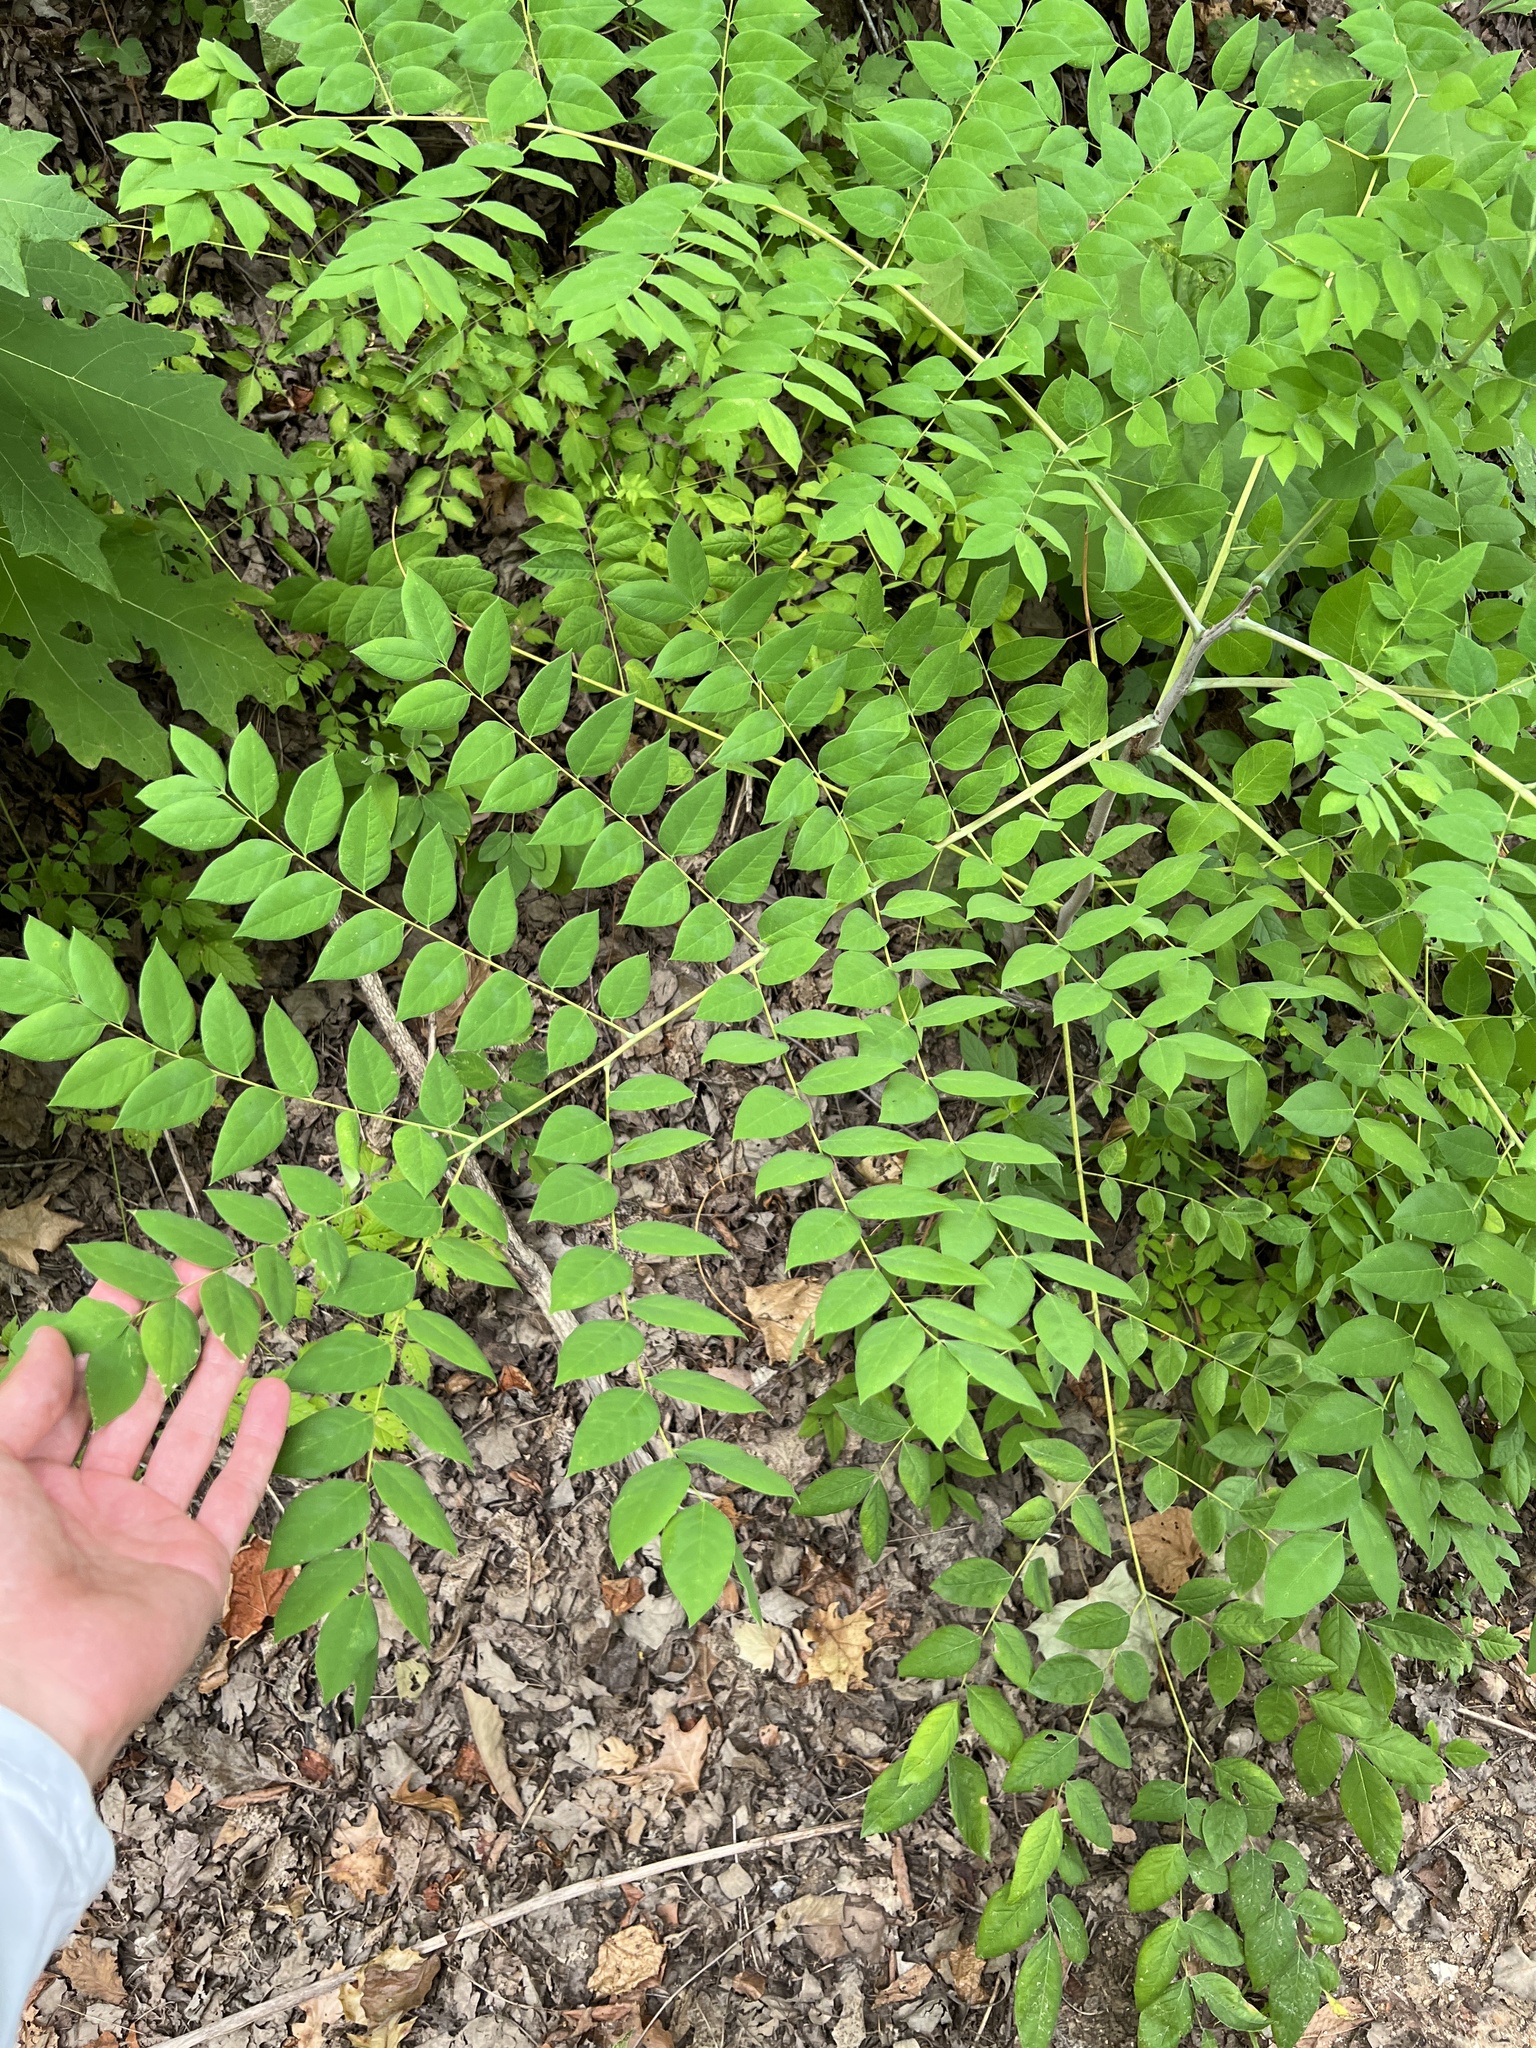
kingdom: Plantae
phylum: Tracheophyta
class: Magnoliopsida
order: Fabales
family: Fabaceae
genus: Gymnocladus
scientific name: Gymnocladus dioicus
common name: Kentucky coffee-tree
